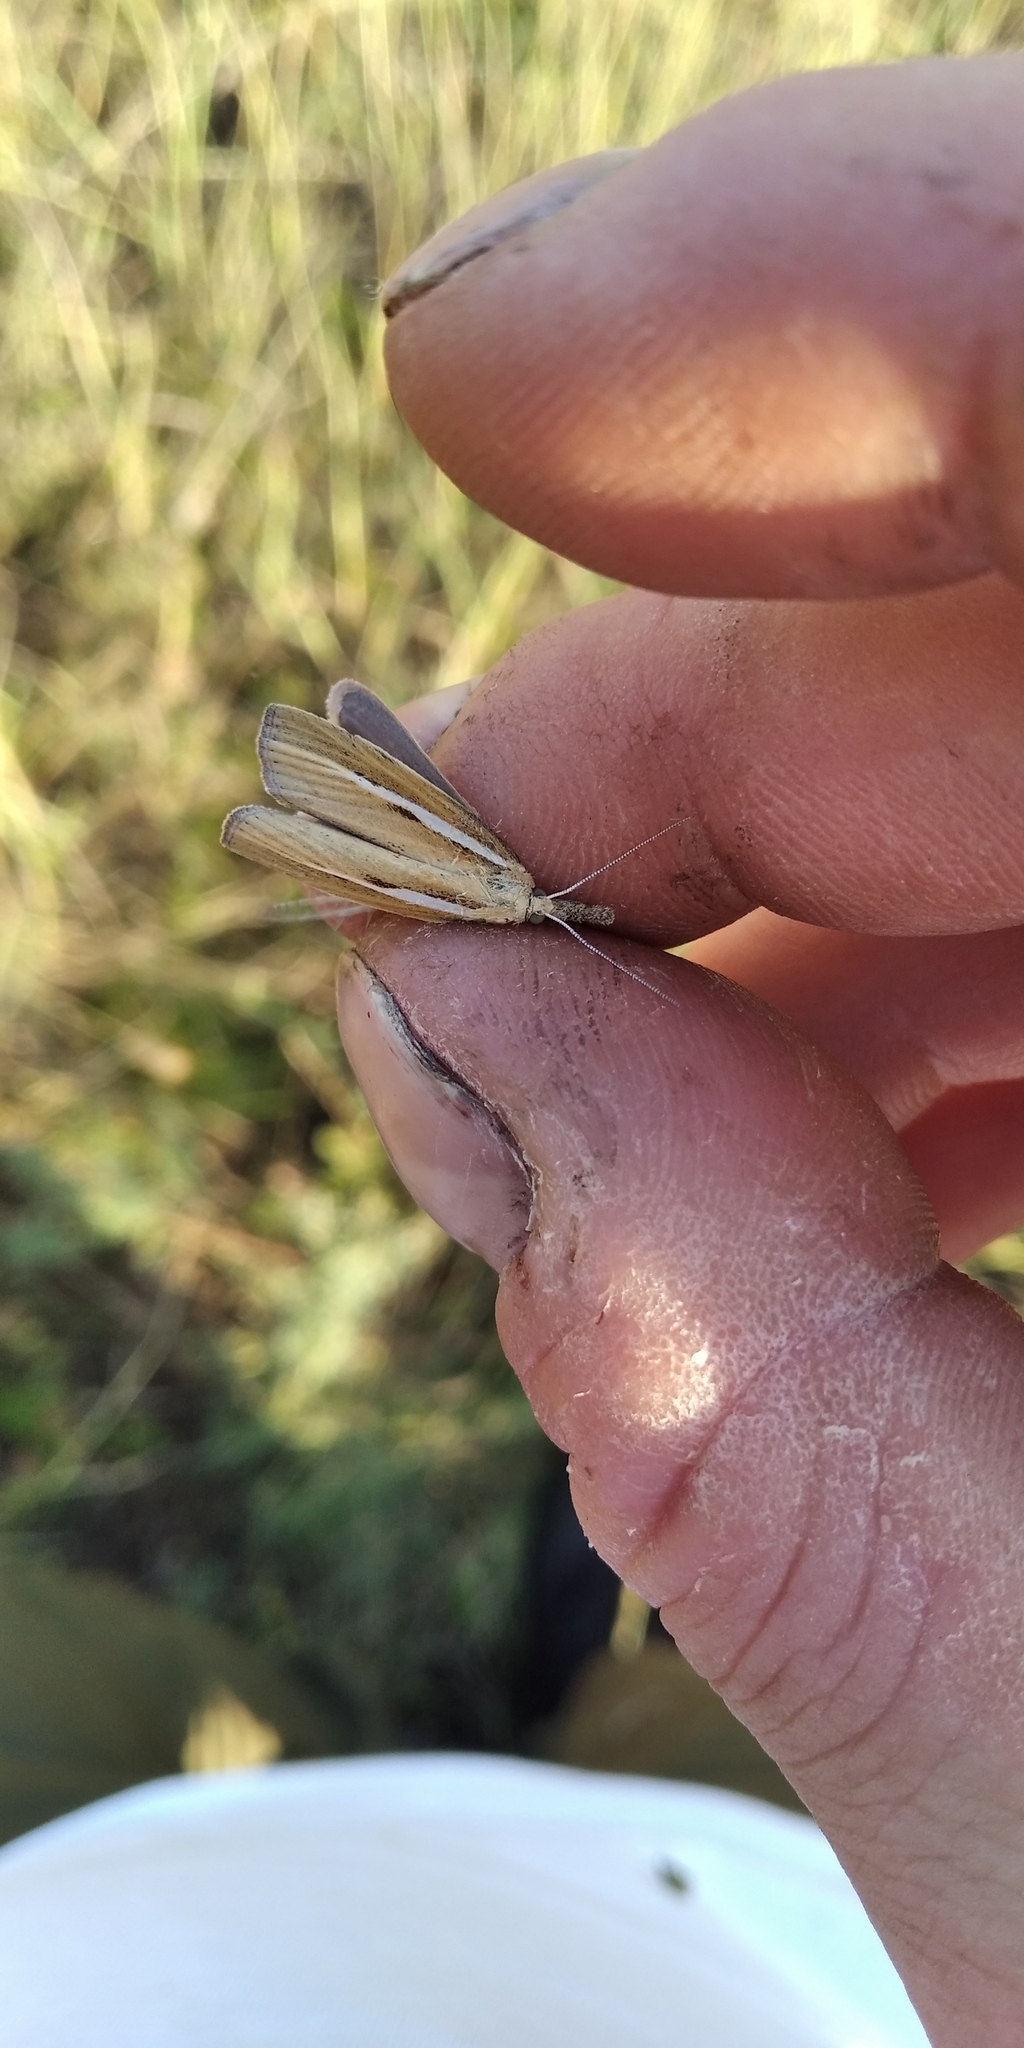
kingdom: Animalia
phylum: Arthropoda
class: Insecta
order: Lepidoptera
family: Crambidae
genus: Agriphila
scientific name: Agriphila tristellus
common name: Common grass-veneer
